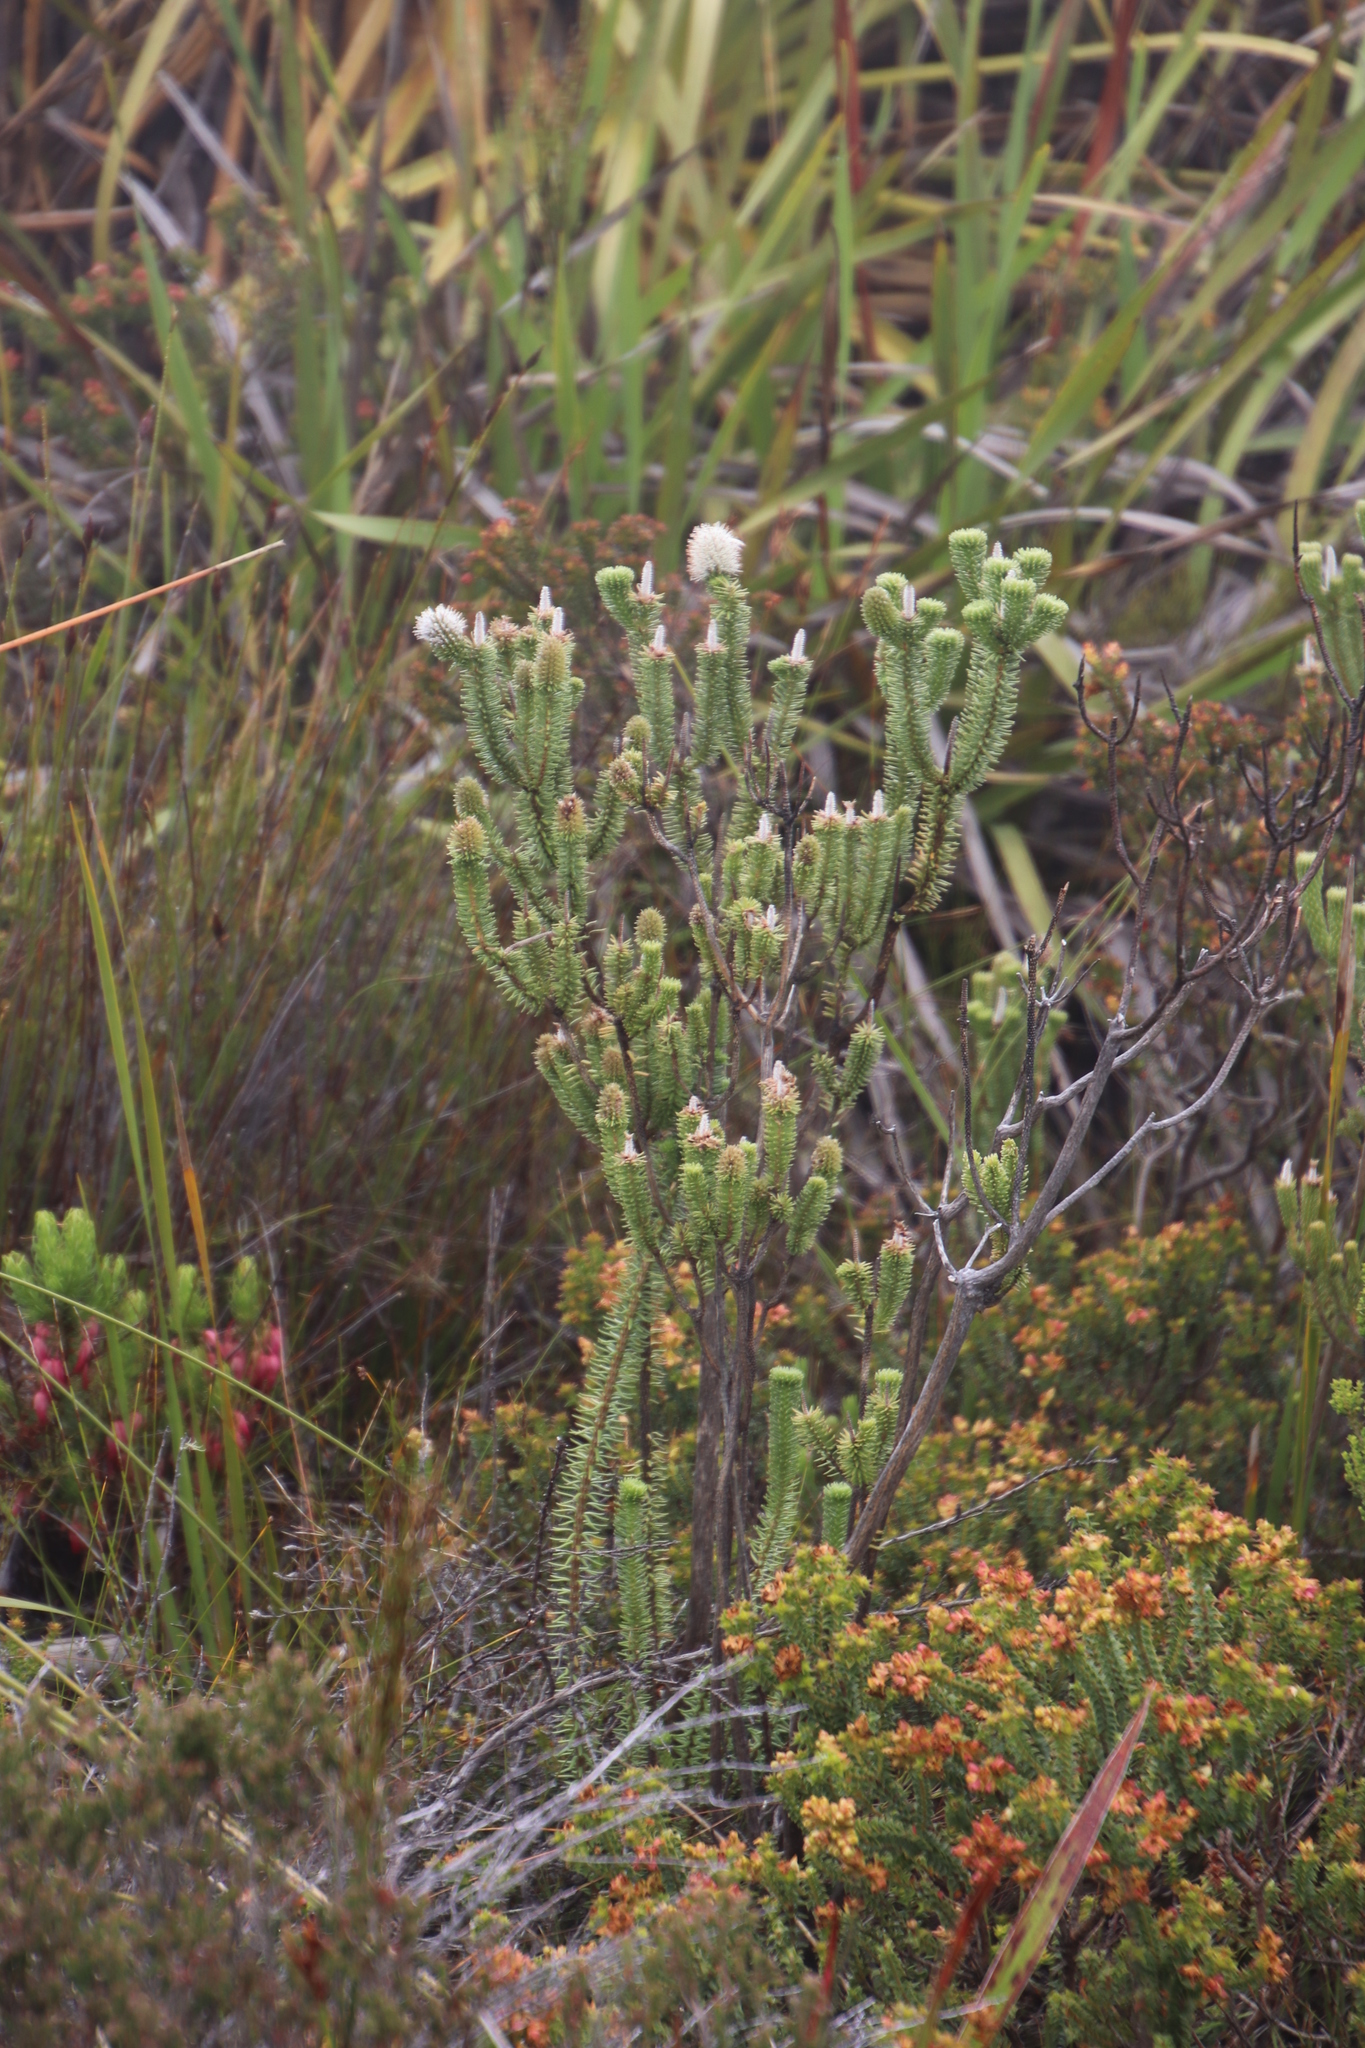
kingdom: Plantae
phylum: Tracheophyta
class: Magnoliopsida
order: Lamiales
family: Stilbaceae
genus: Stilbe
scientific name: Stilbe vestita
